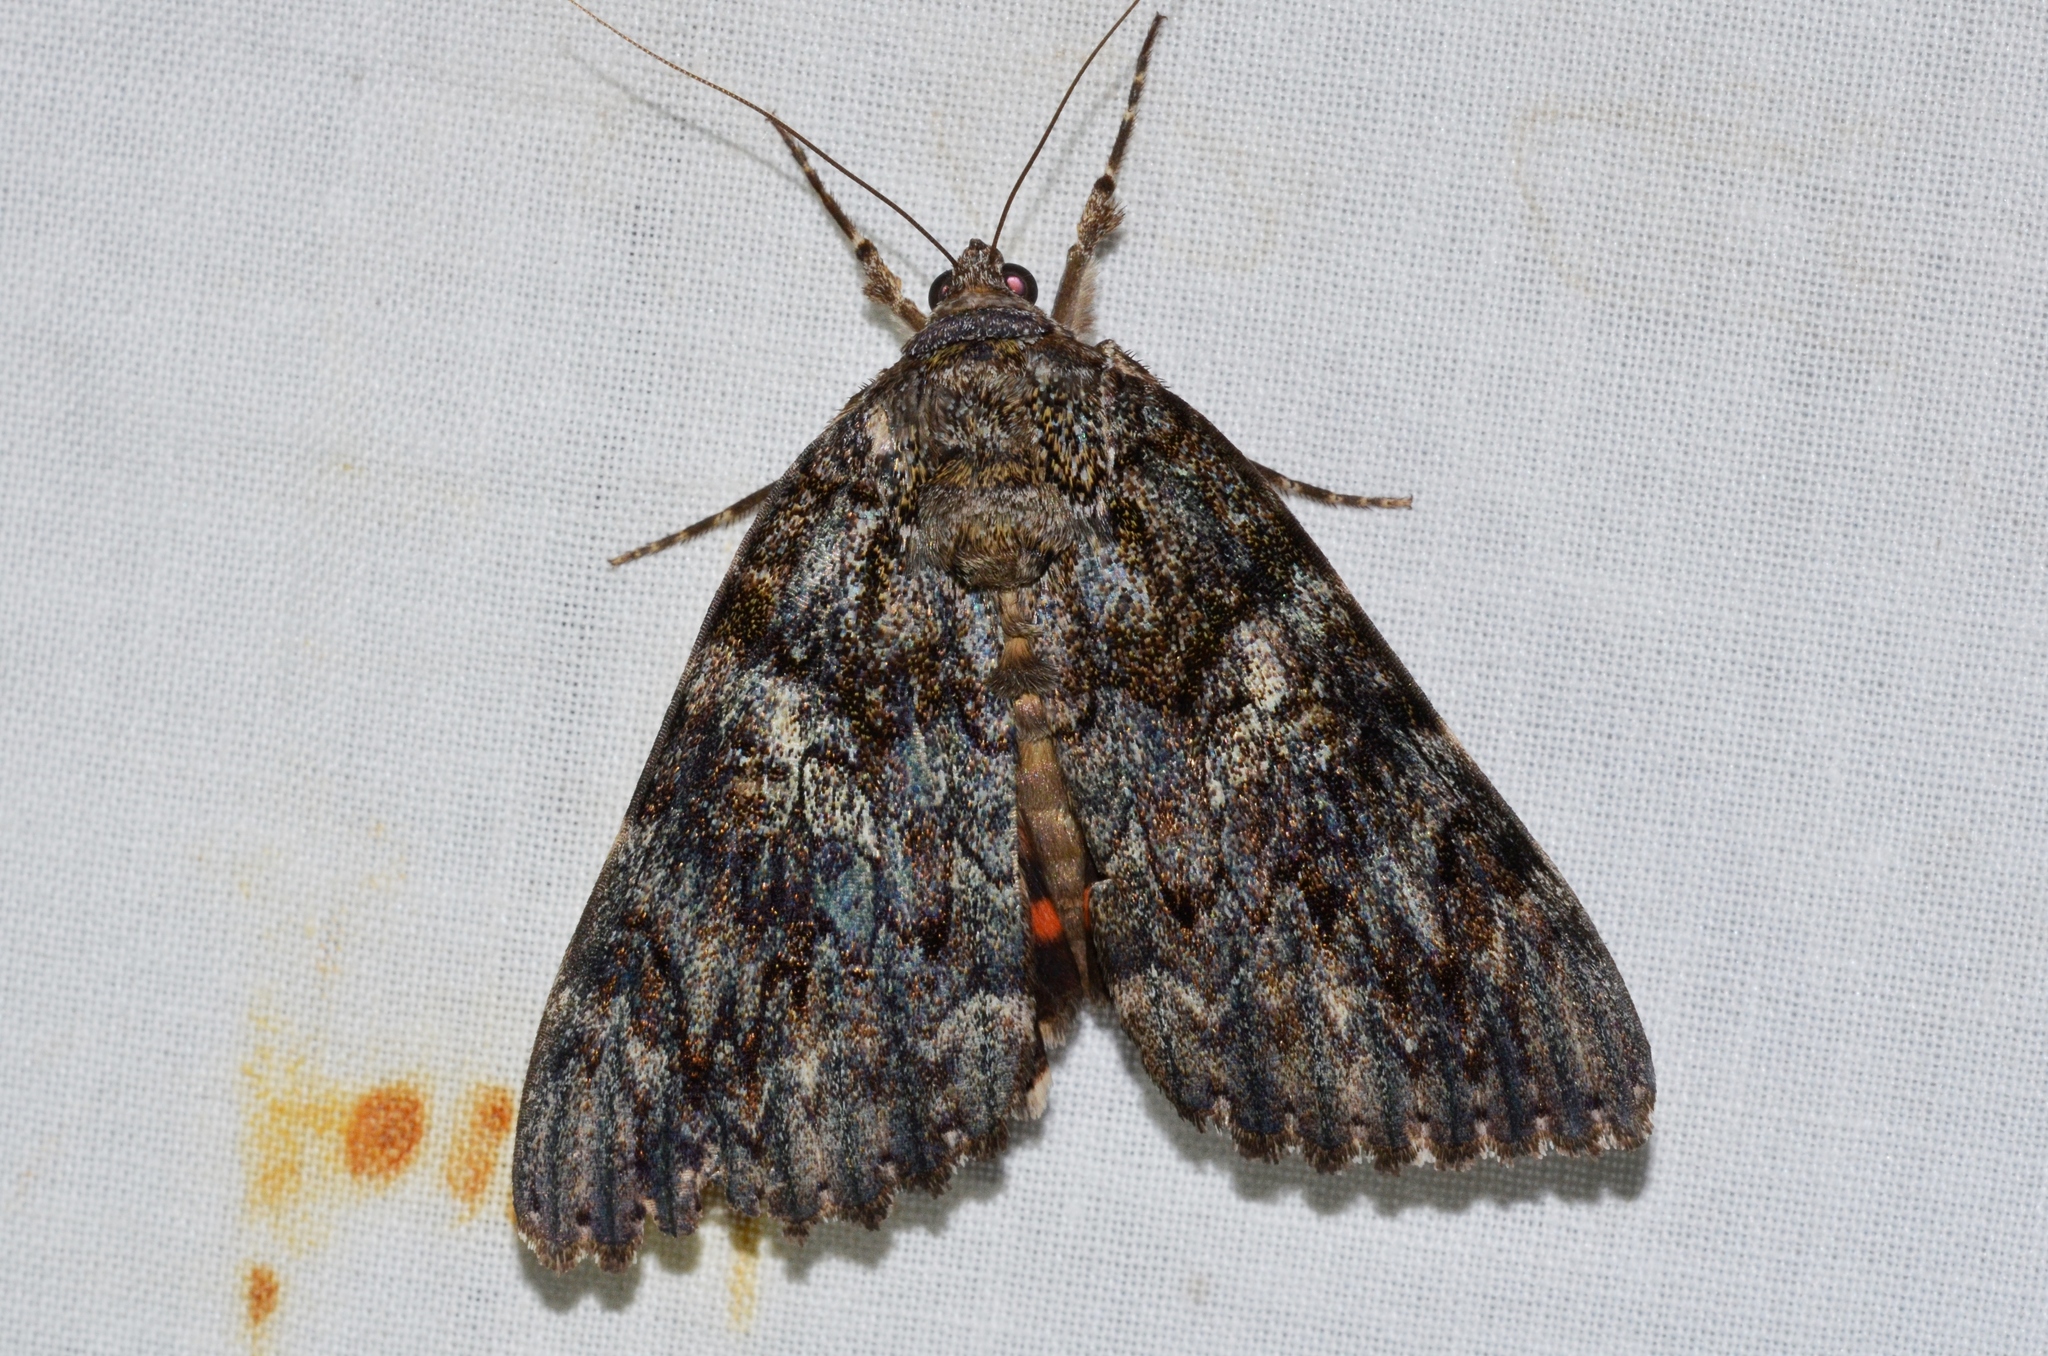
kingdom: Animalia
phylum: Arthropoda
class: Insecta
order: Lepidoptera
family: Erebidae
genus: Catocala
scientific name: Catocala ilia
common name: Ilia underwing
